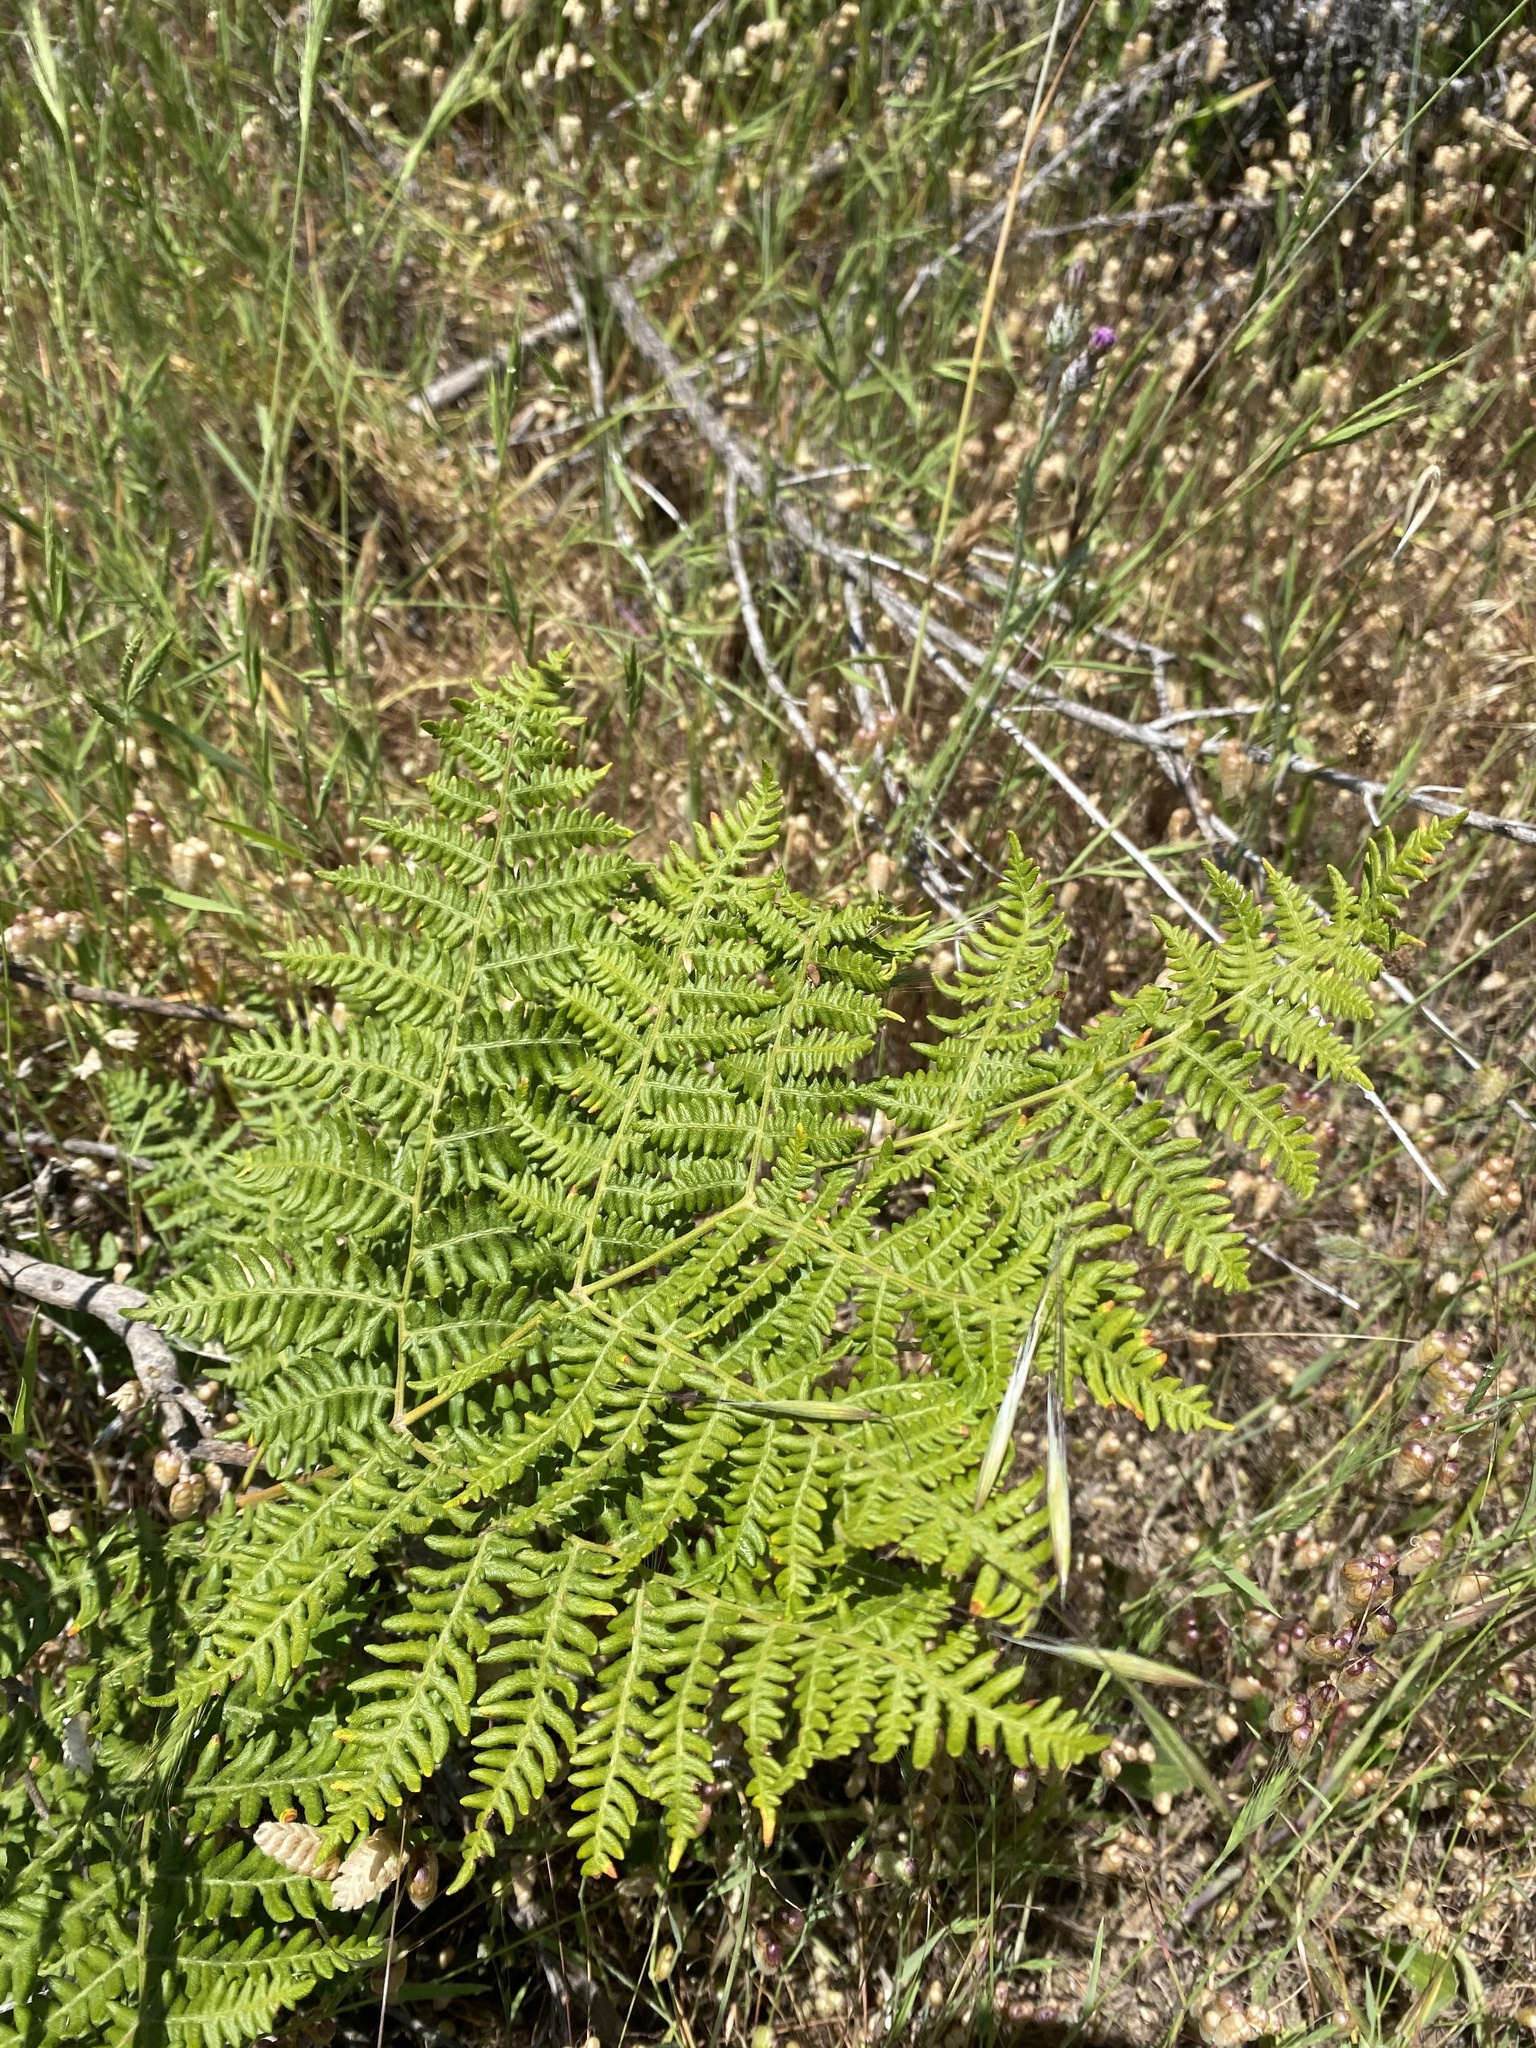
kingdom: Plantae
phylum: Tracheophyta
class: Polypodiopsida
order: Polypodiales
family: Dennstaedtiaceae
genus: Pteridium
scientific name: Pteridium aquilinum
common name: Bracken
